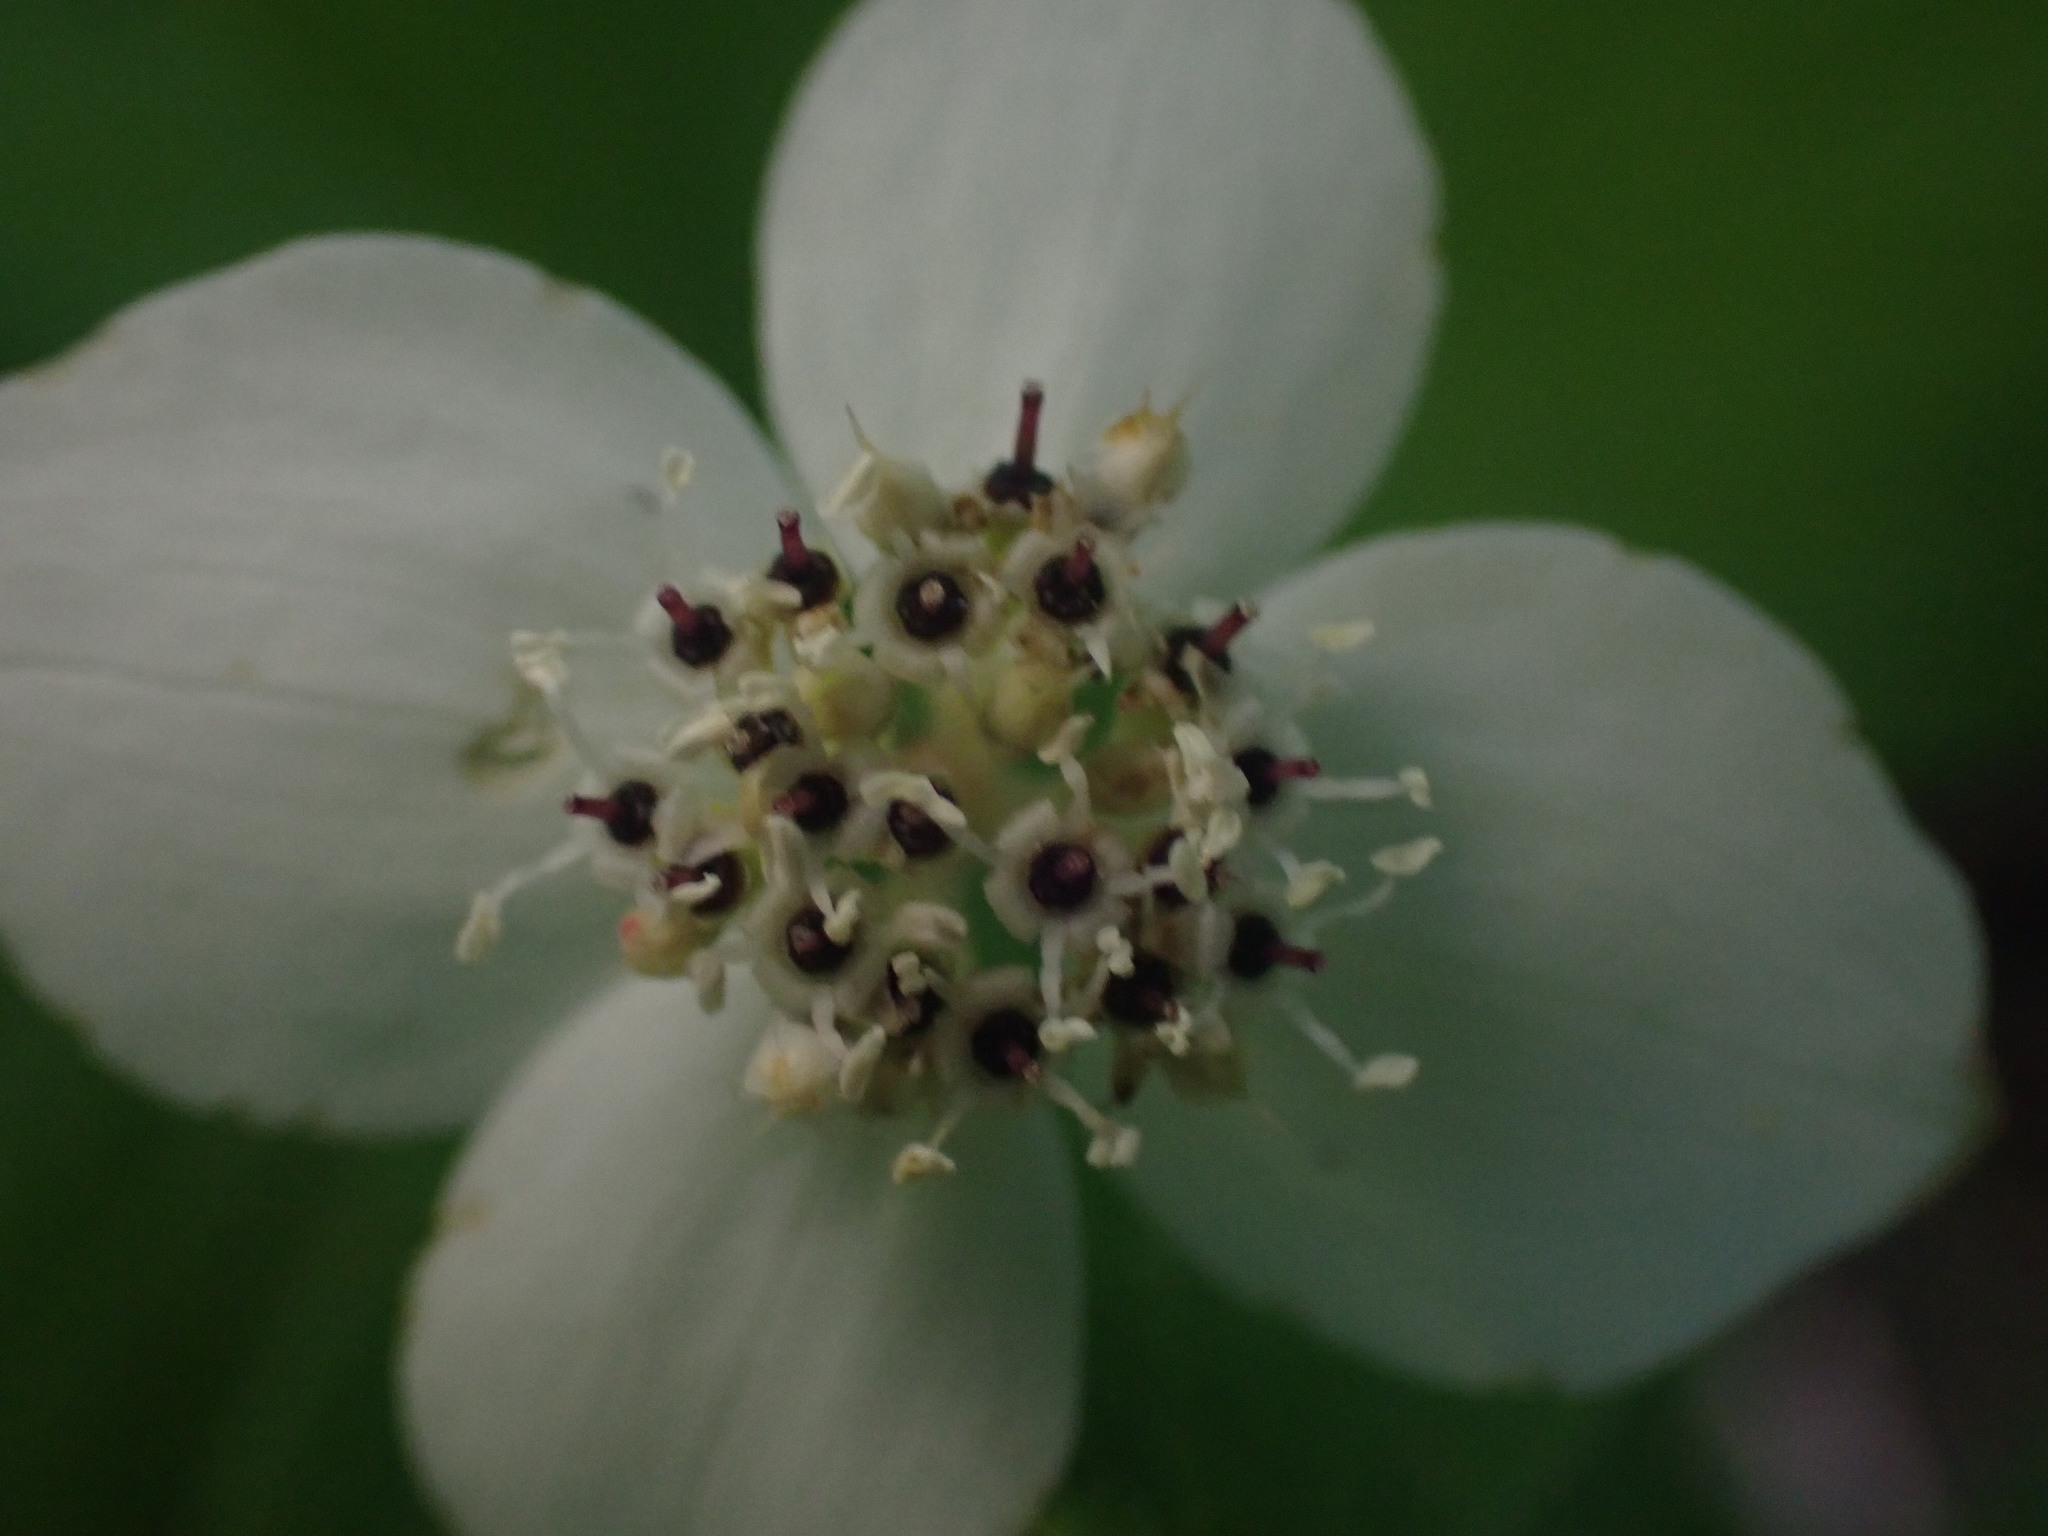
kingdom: Plantae
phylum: Tracheophyta
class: Magnoliopsida
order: Cornales
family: Cornaceae
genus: Cornus
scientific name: Cornus canadensis
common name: Creeping dogwood
